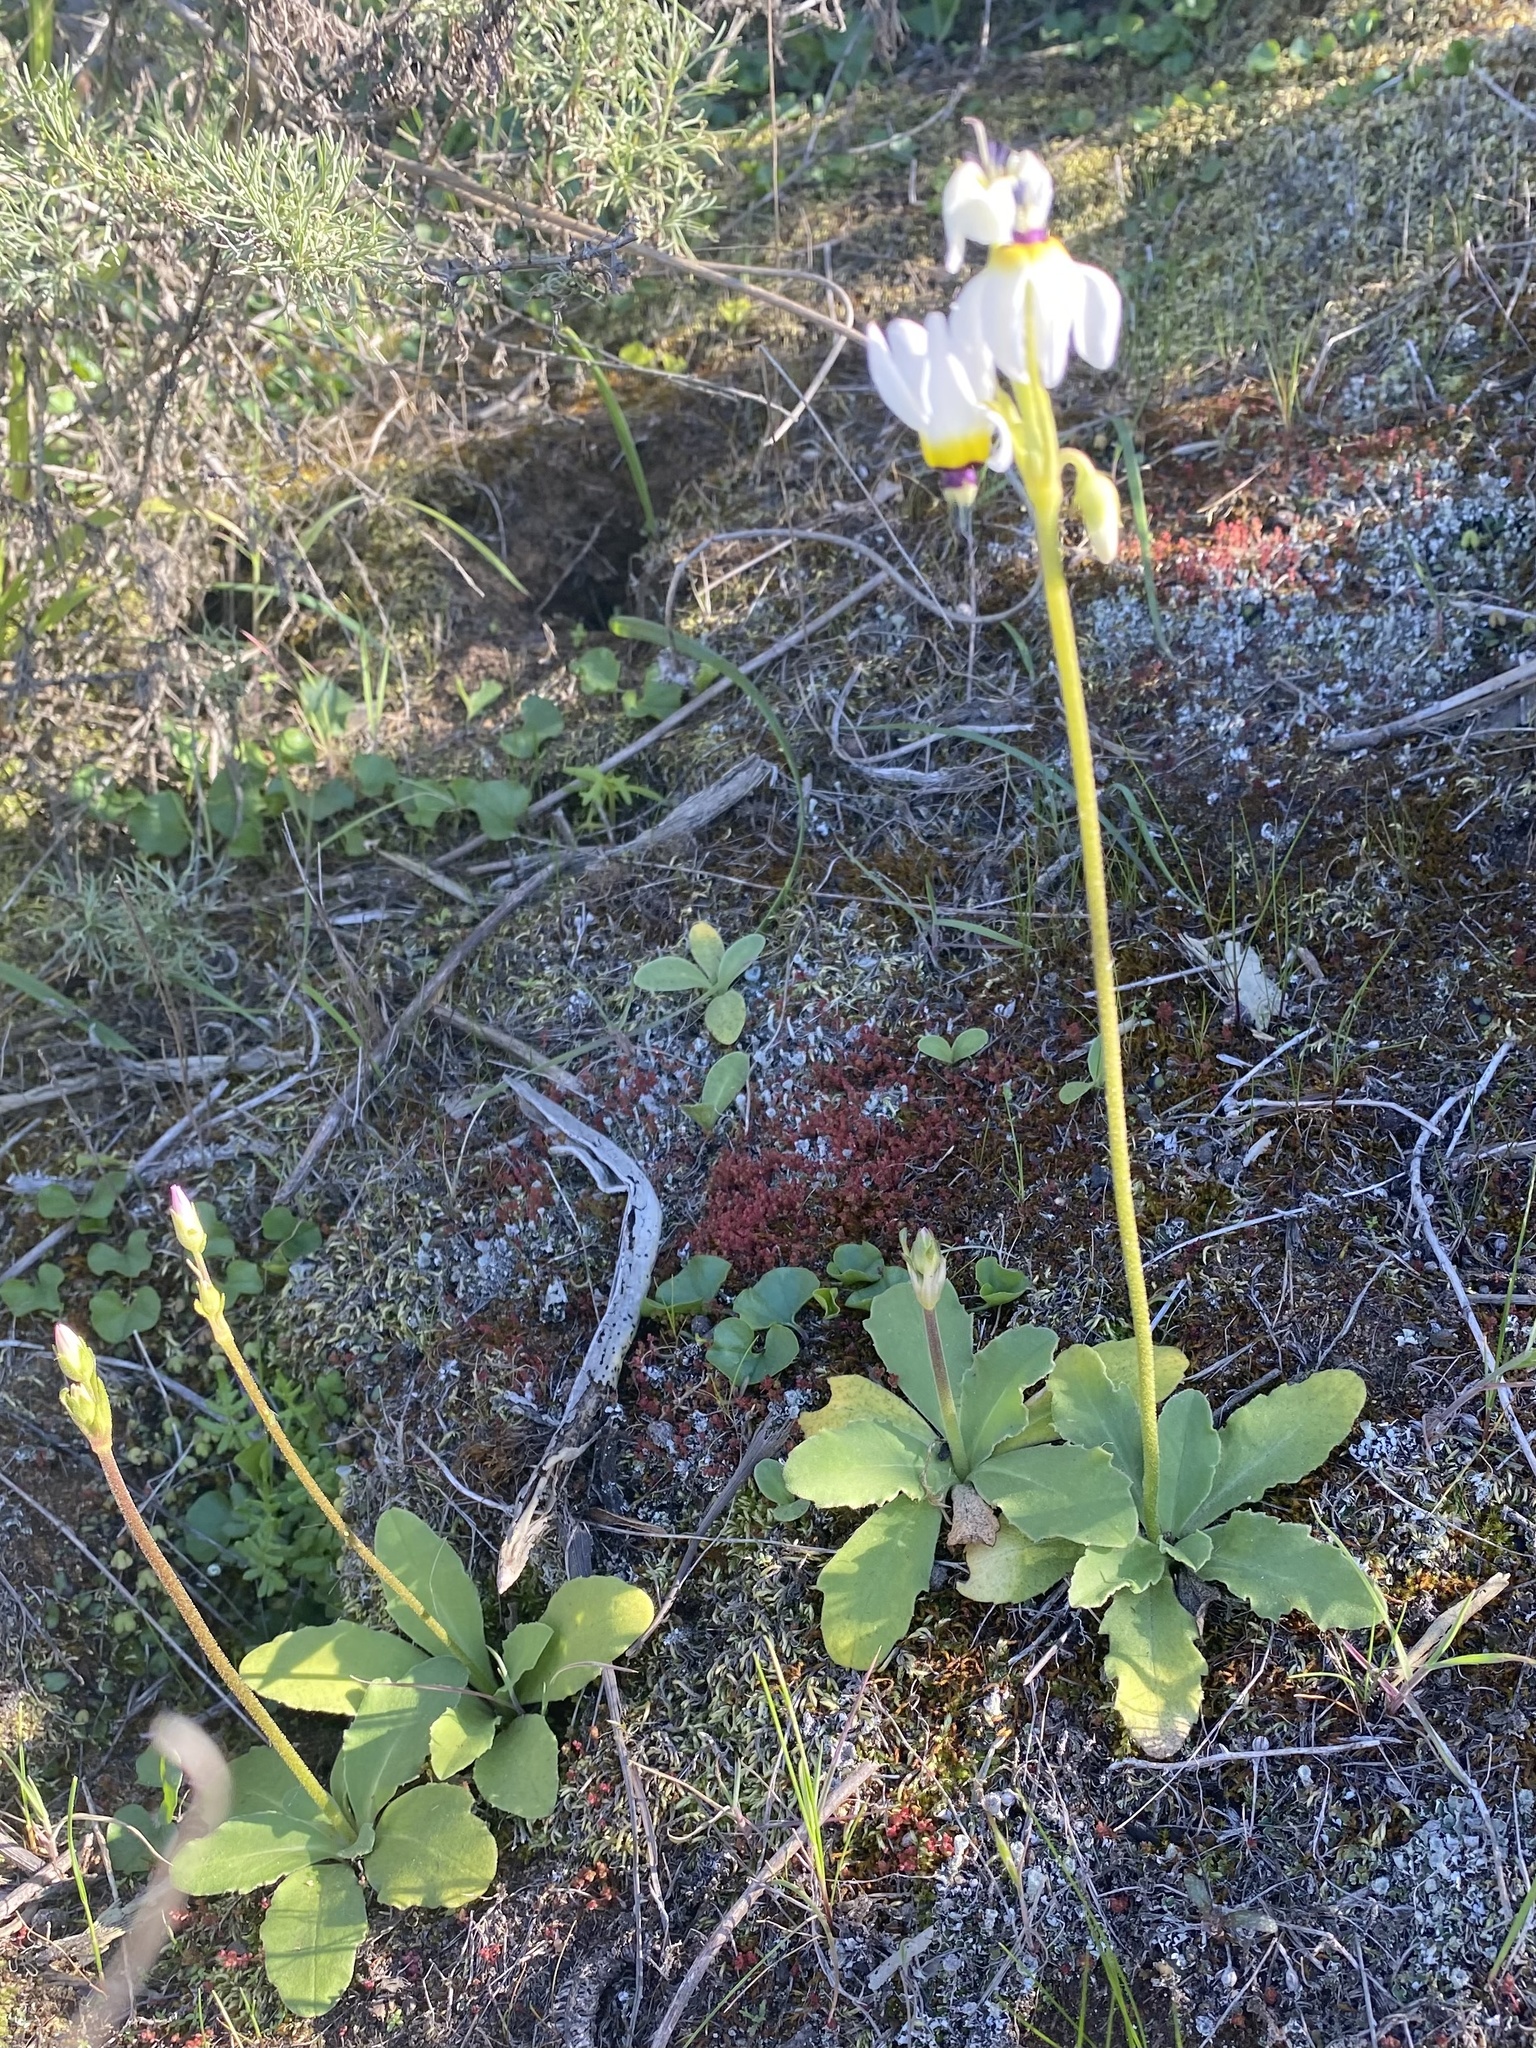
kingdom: Plantae
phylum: Tracheophyta
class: Magnoliopsida
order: Ericales
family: Primulaceae
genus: Dodecatheon
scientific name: Dodecatheon clevelandii
